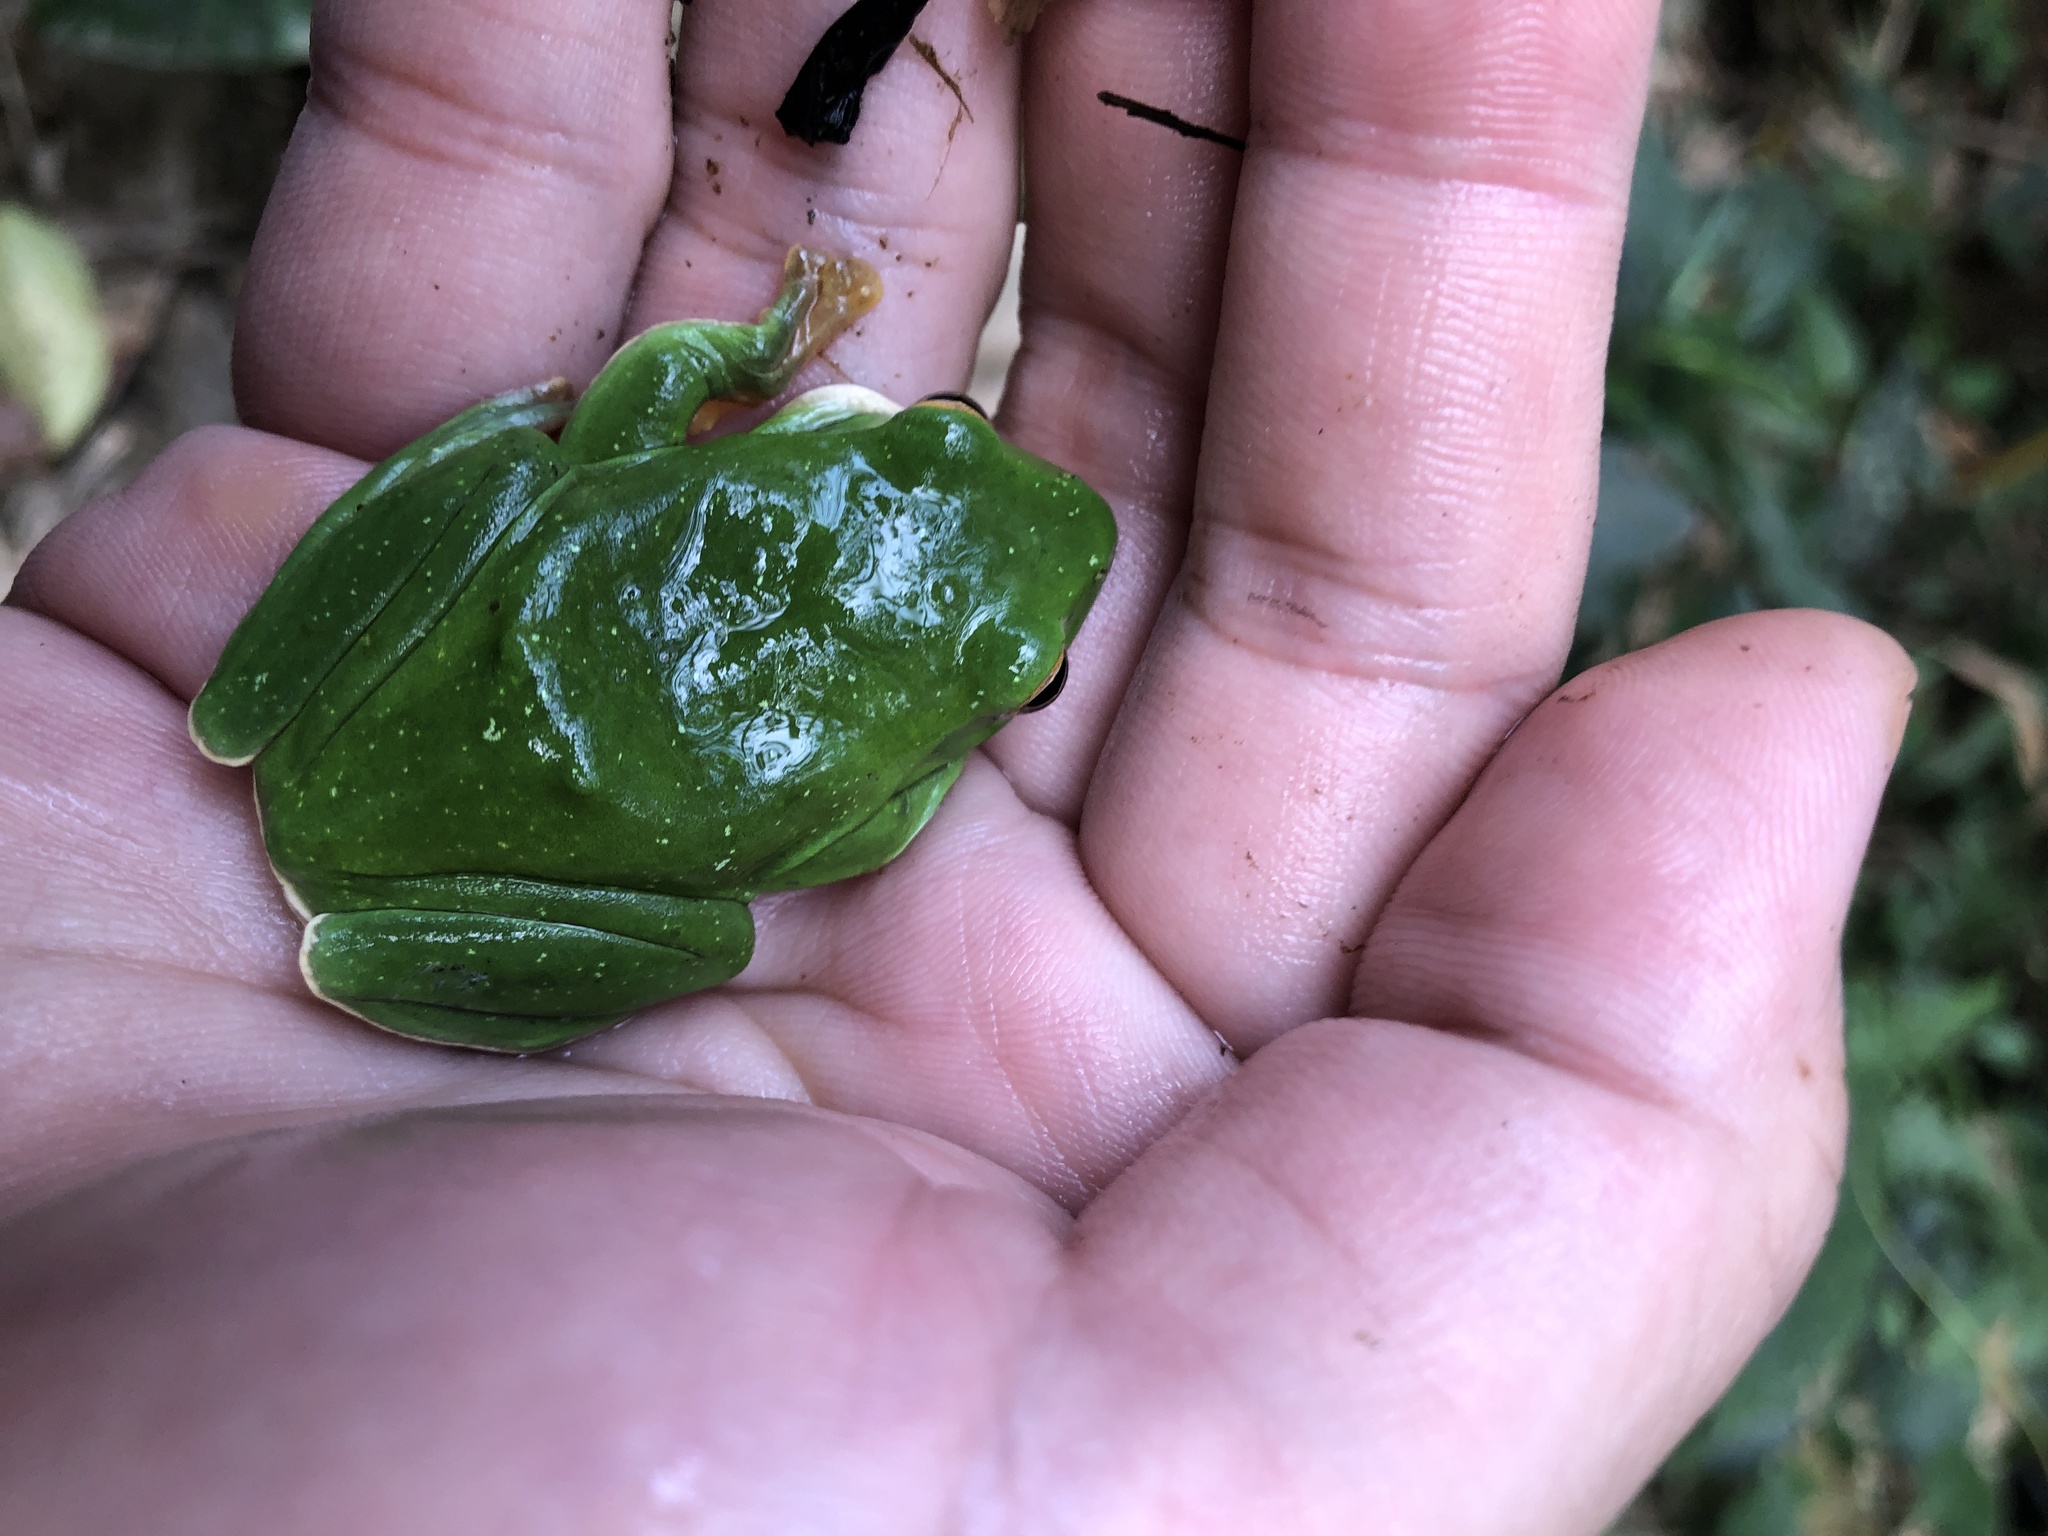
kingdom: Animalia
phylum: Chordata
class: Amphibia
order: Anura
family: Rhacophoridae
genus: Zhangixalus
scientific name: Zhangixalus moltrechti
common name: Moltrecht's treefrog
